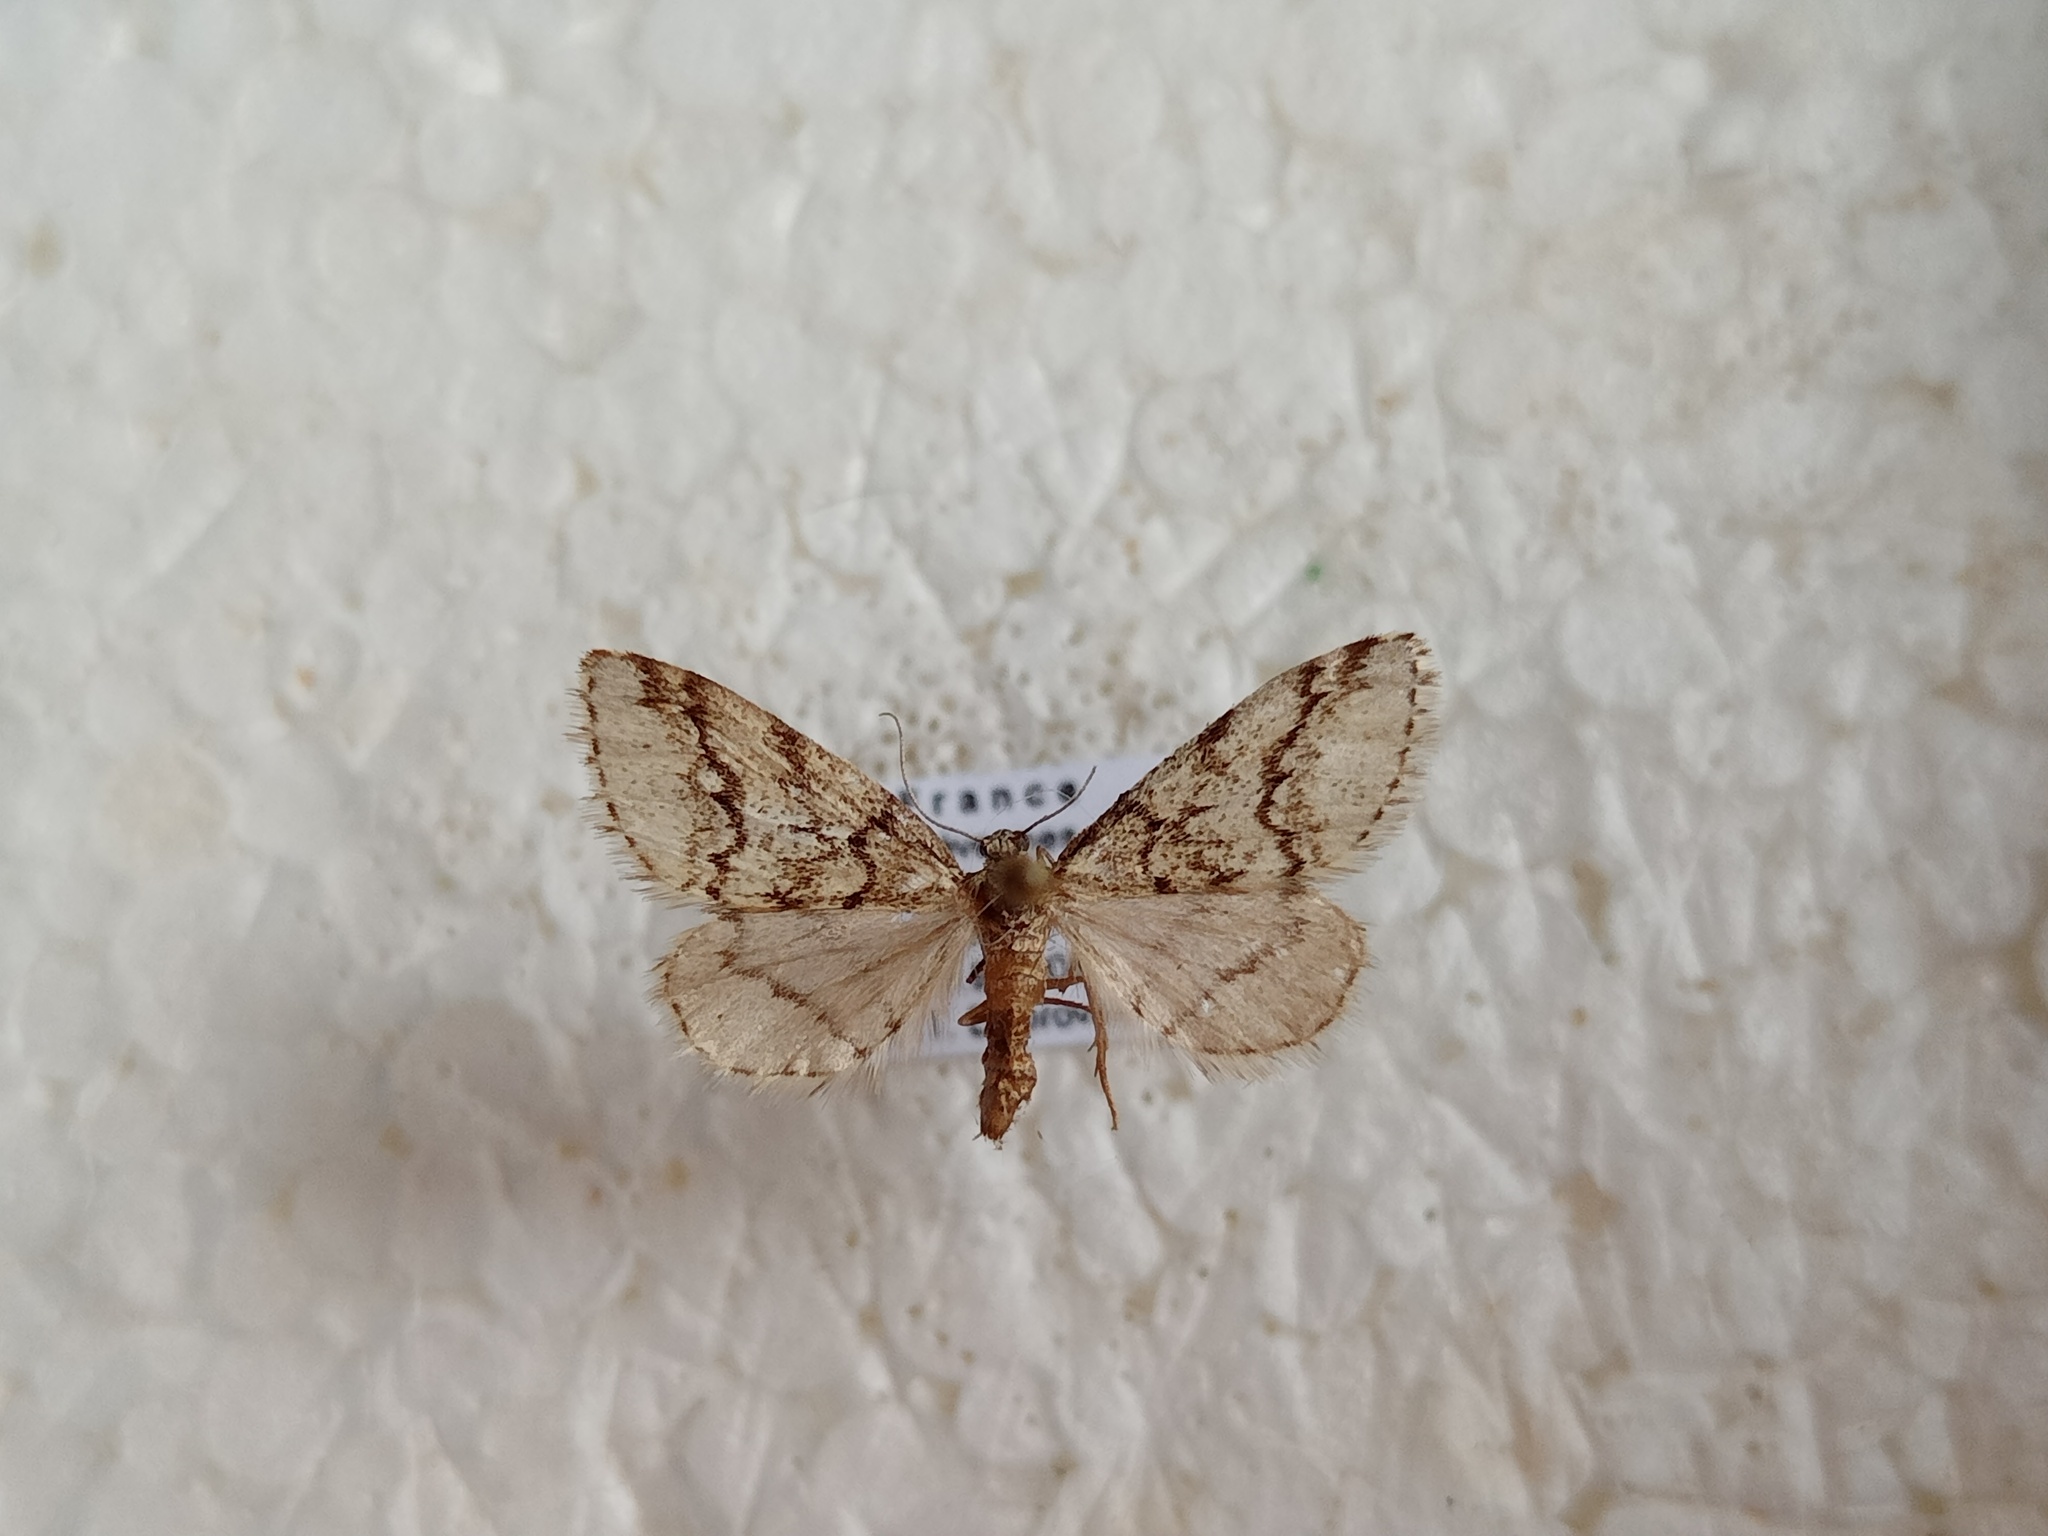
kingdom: Animalia
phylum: Arthropoda
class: Insecta
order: Lepidoptera
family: Geometridae
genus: Tephronia
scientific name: Tephronia lhommaria
